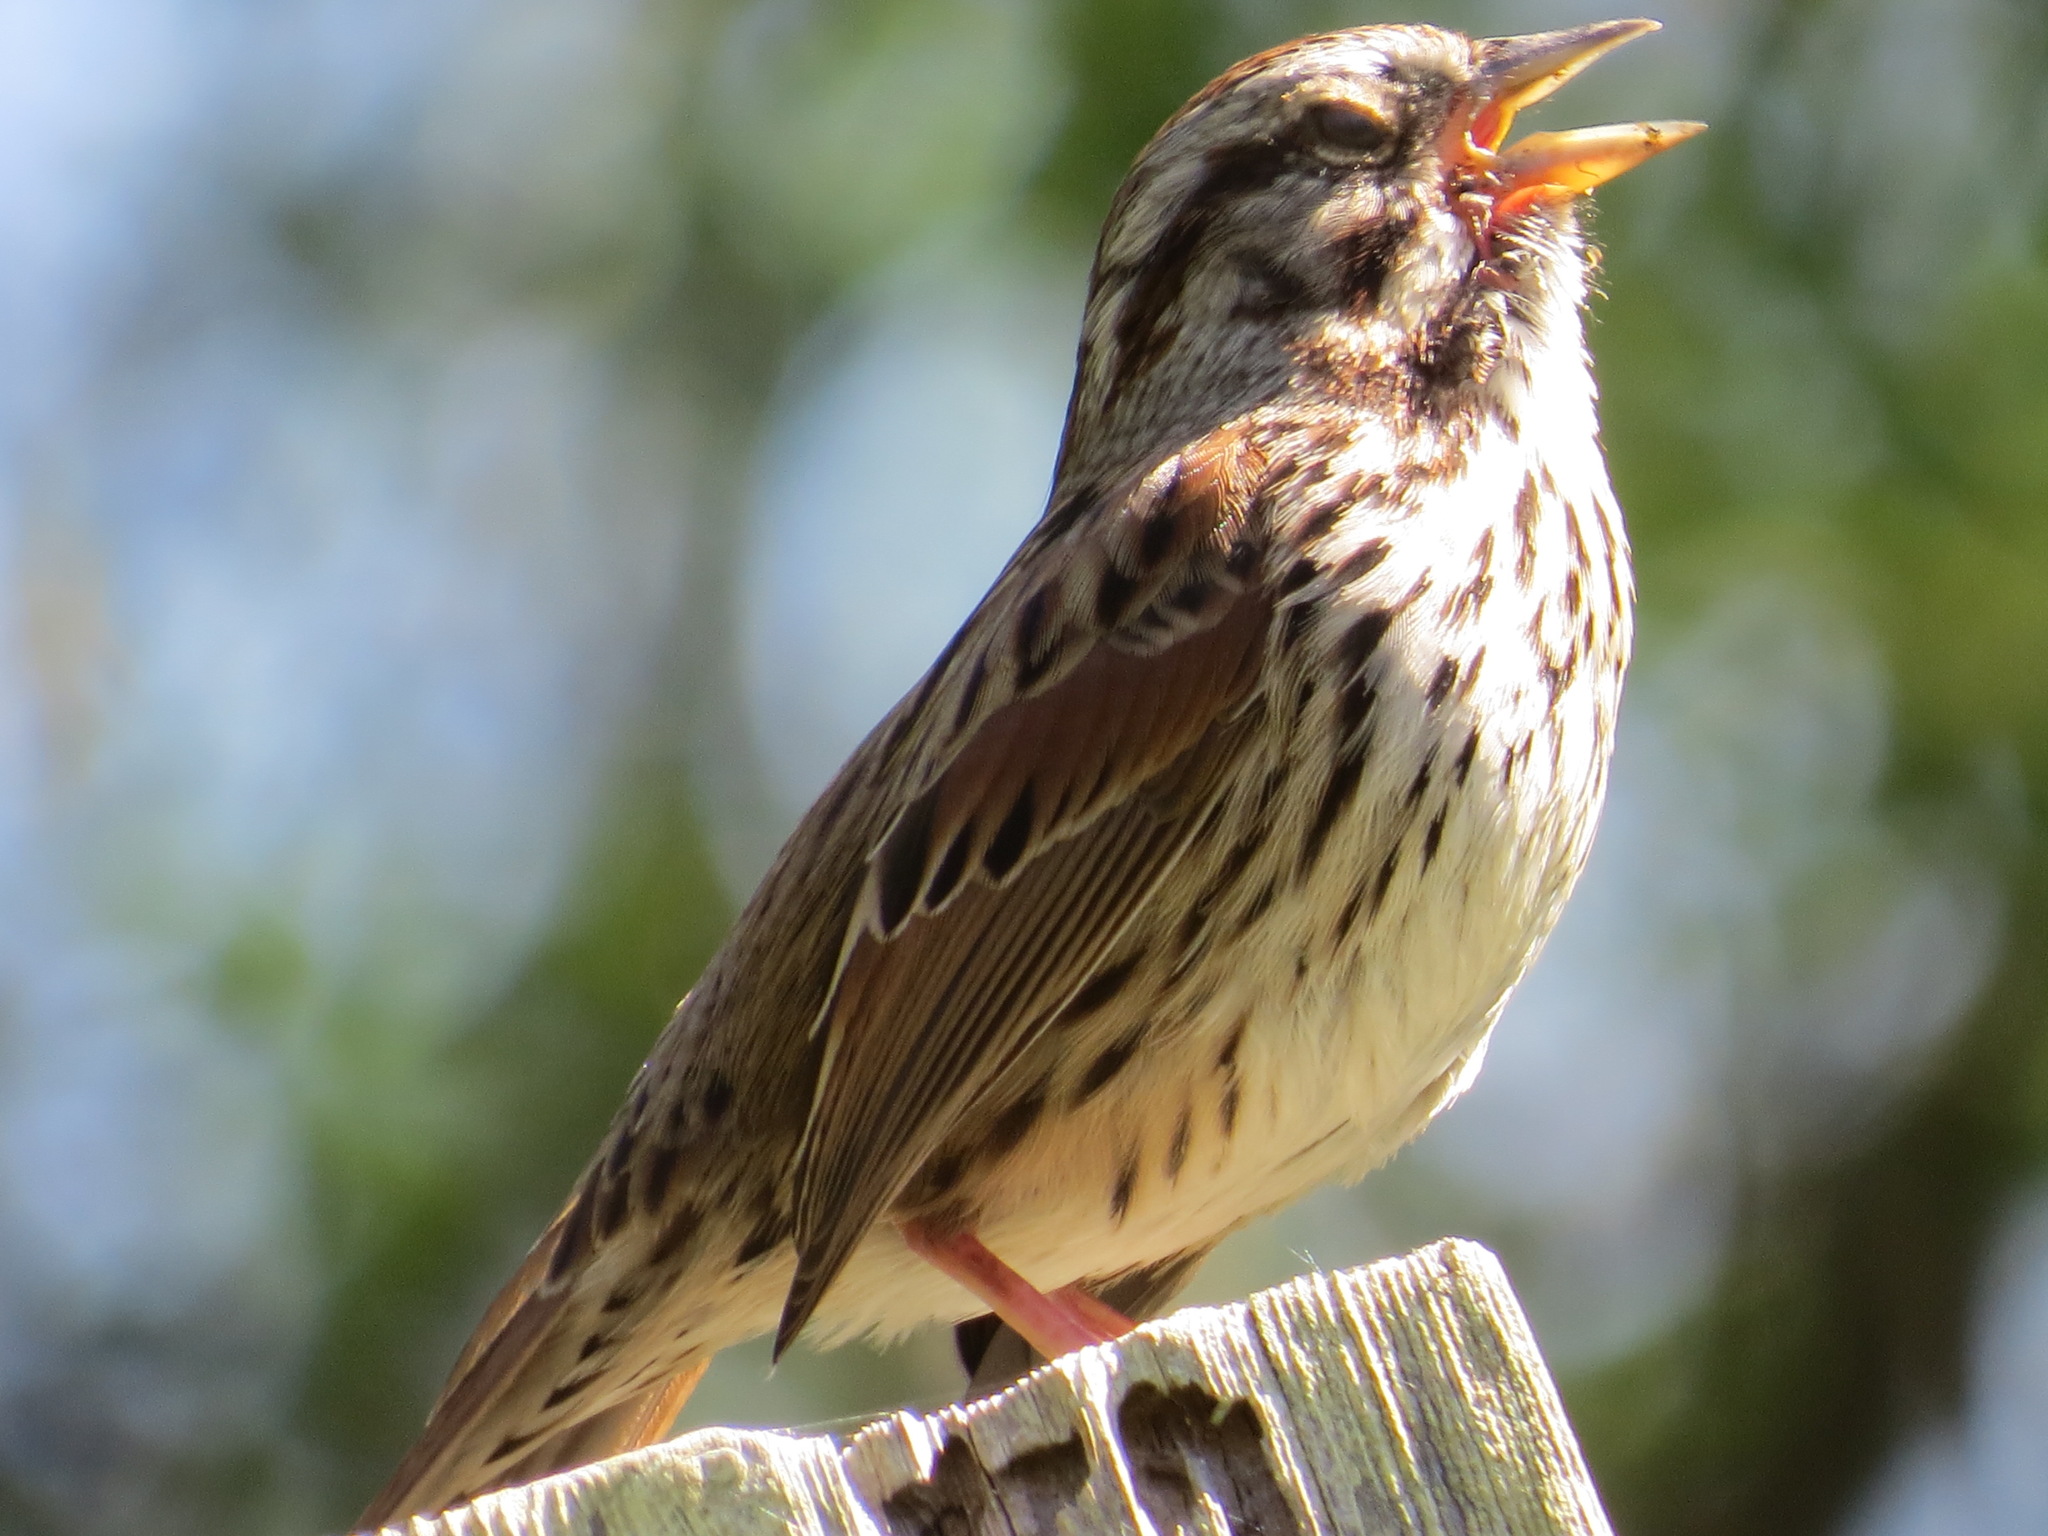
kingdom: Animalia
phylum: Chordata
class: Aves
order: Passeriformes
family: Passerellidae
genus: Melospiza
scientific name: Melospiza melodia
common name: Song sparrow
